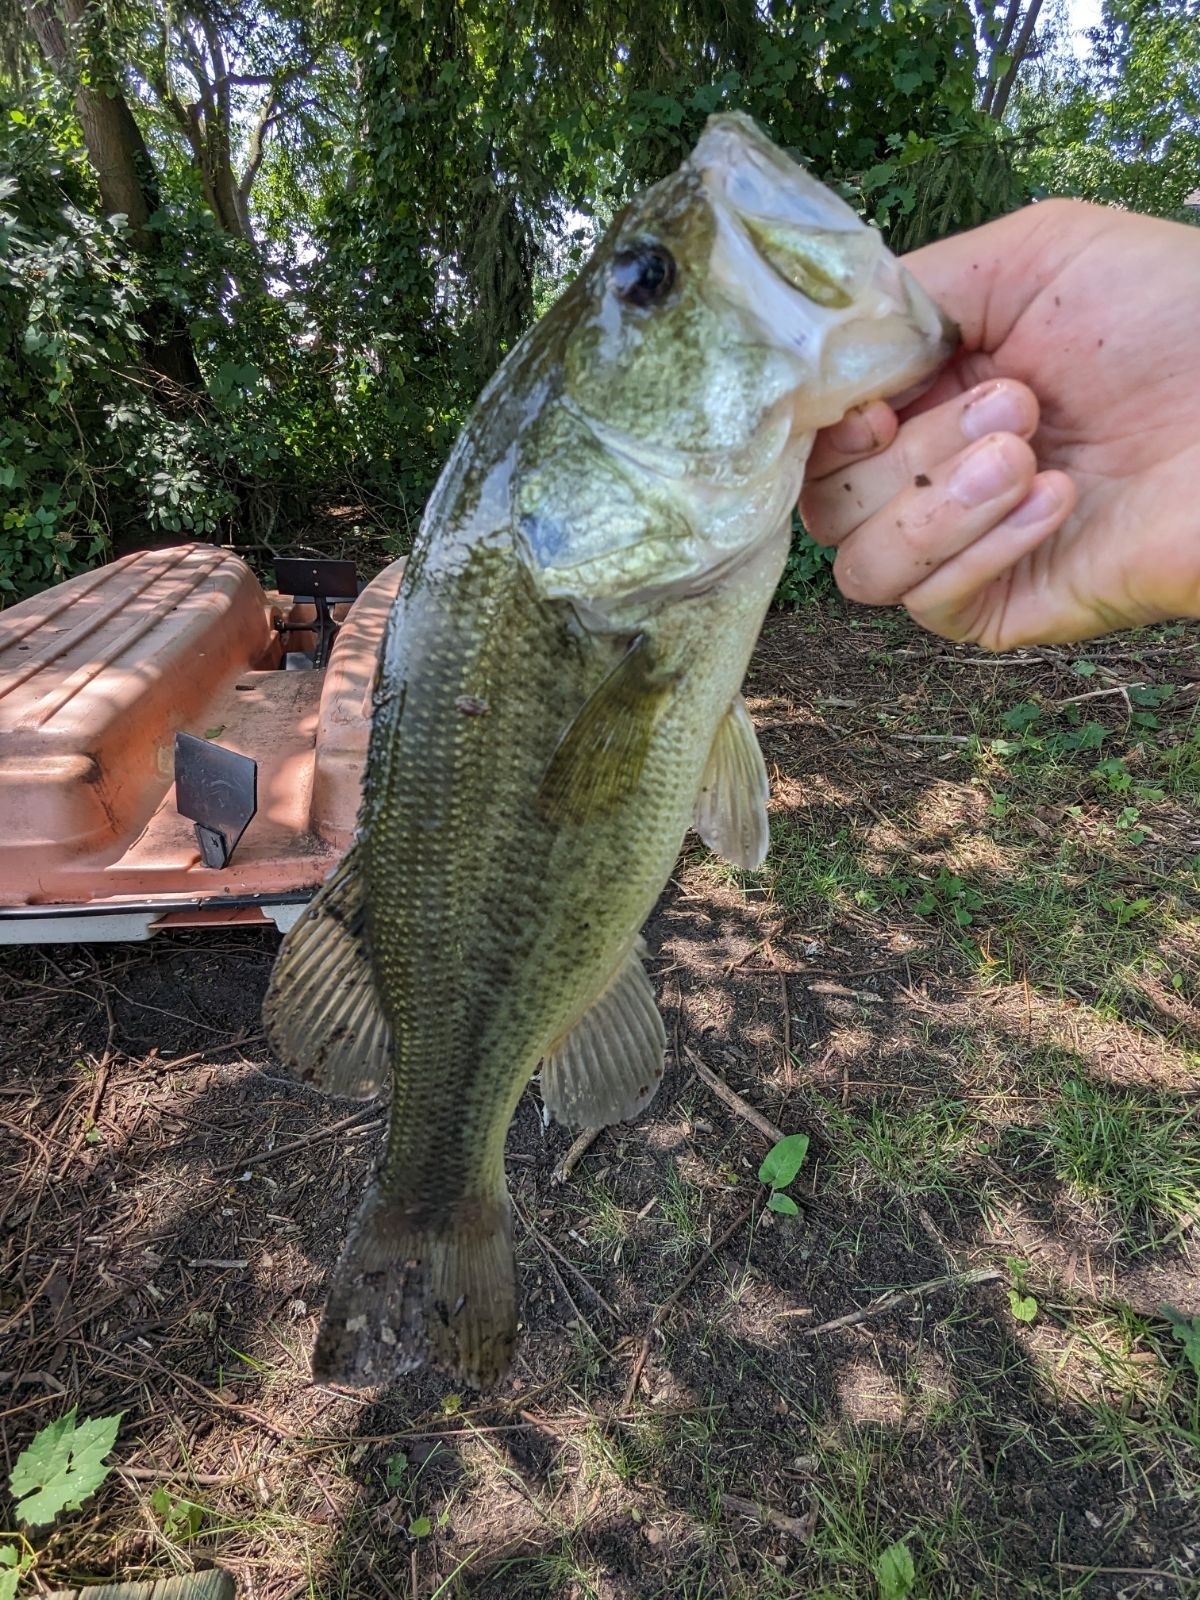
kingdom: Animalia
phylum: Chordata
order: Perciformes
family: Centrarchidae
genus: Micropterus
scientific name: Micropterus
